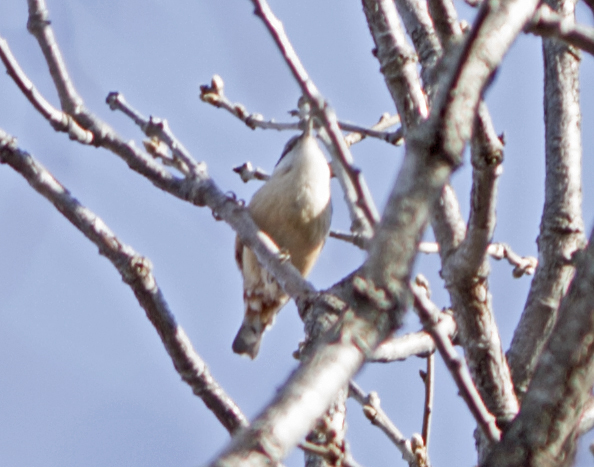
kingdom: Animalia
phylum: Chordata
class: Aves
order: Passeriformes
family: Sittidae
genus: Sitta
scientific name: Sitta europaea
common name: Eurasian nuthatch
